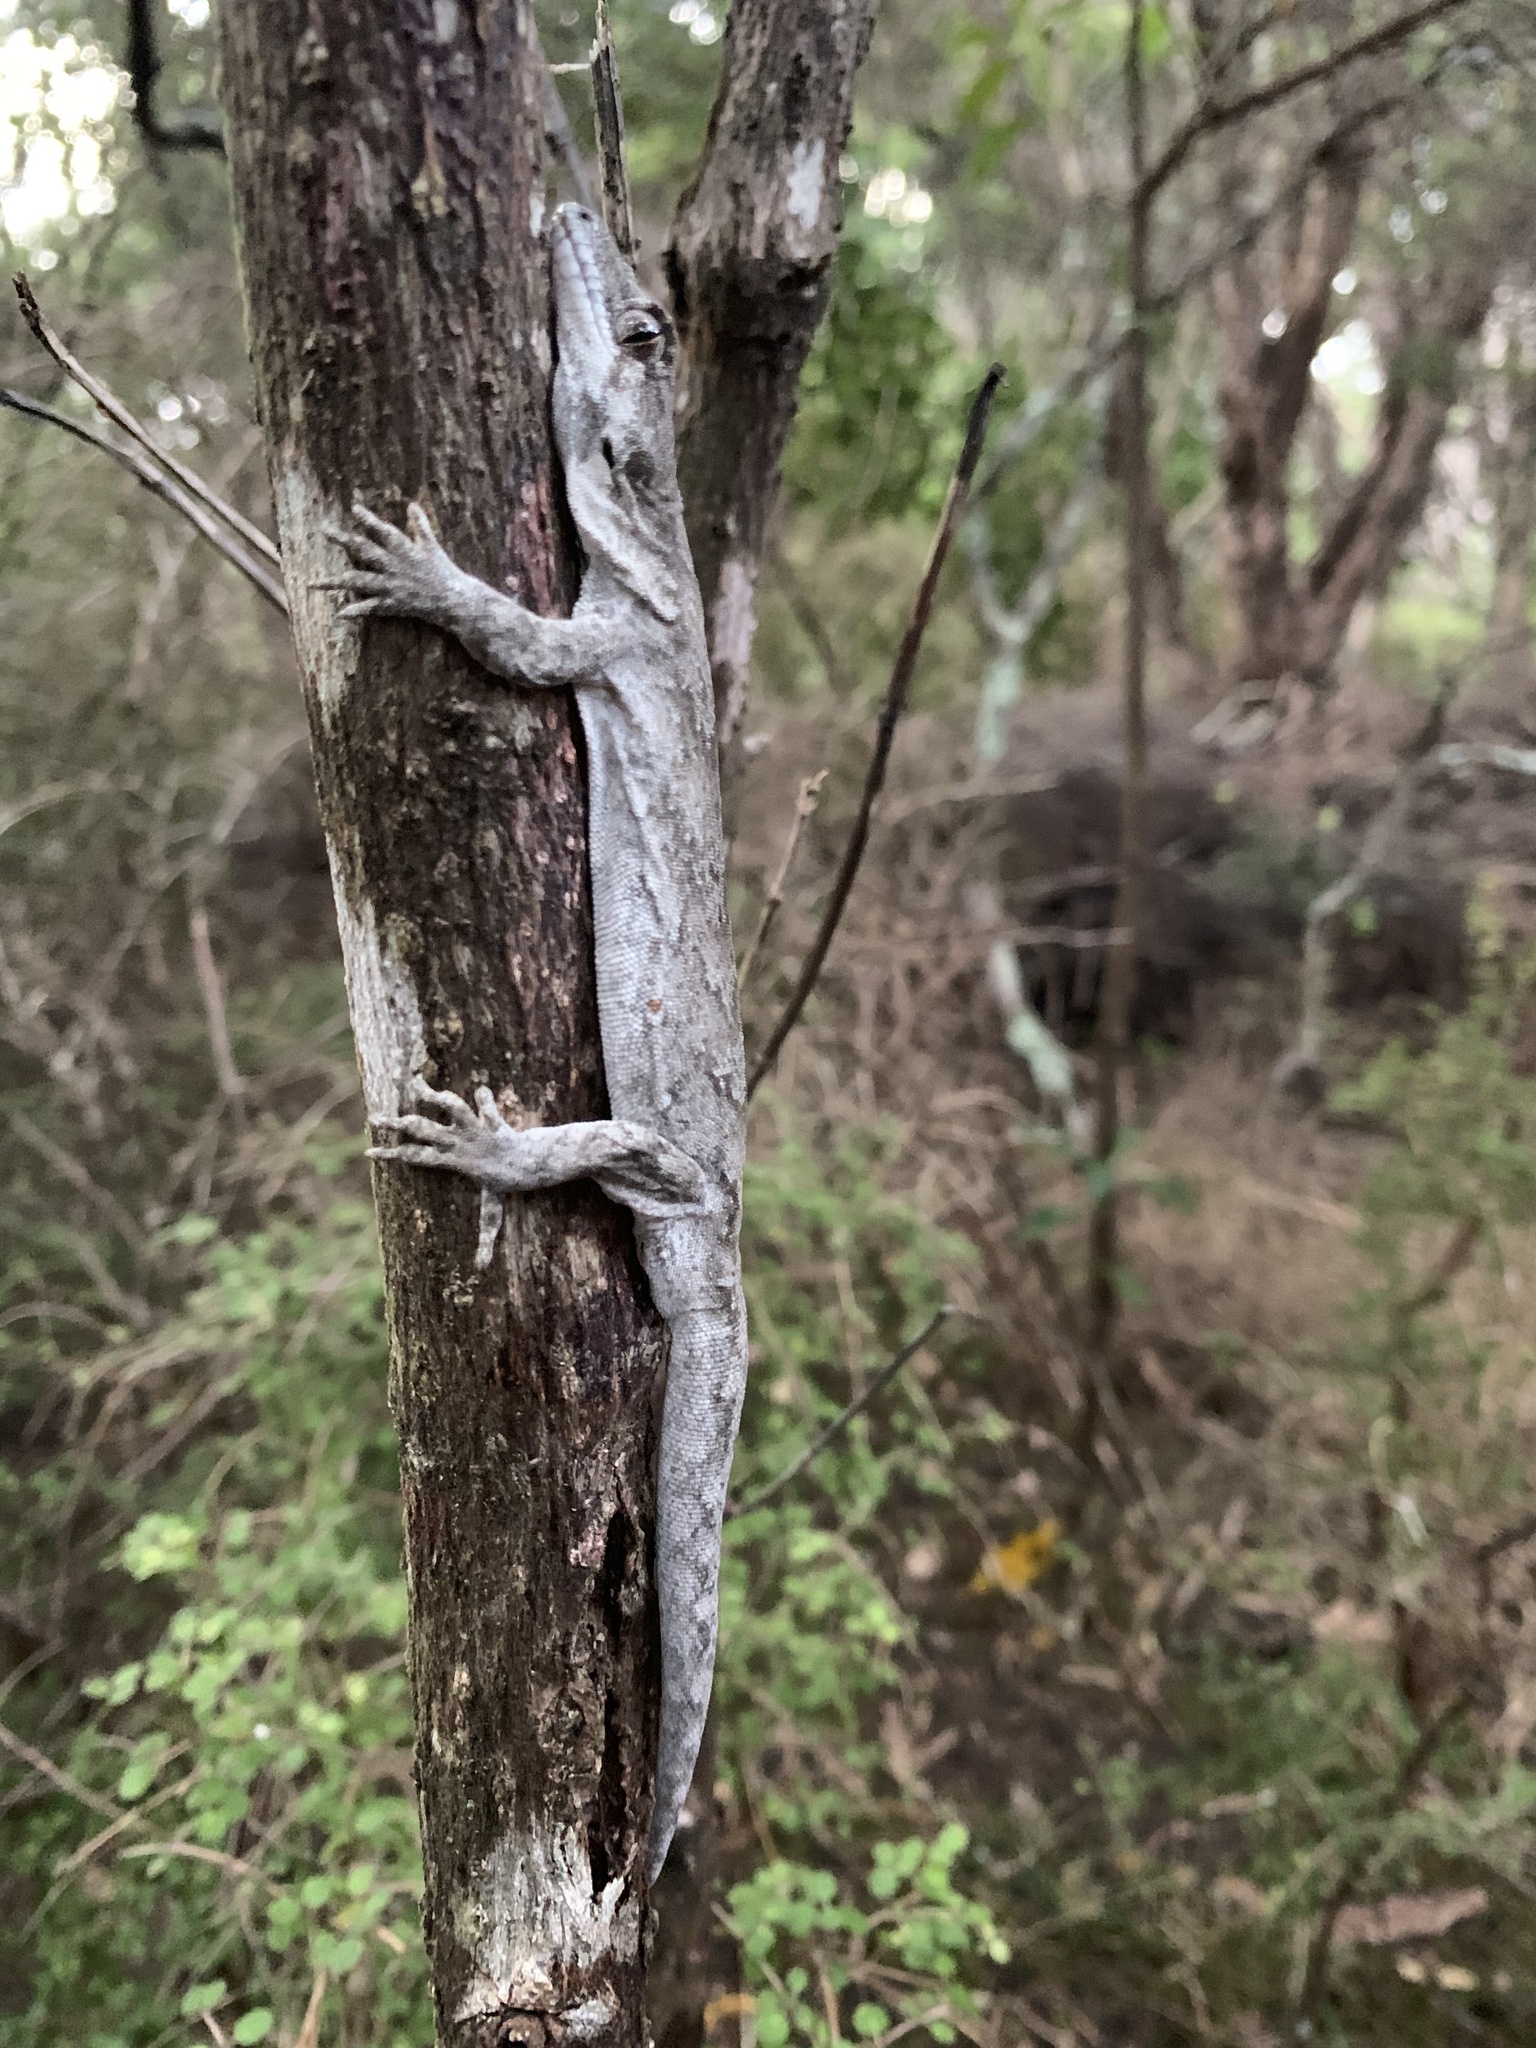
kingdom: Animalia
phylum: Chordata
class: Squamata
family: Diplodactylidae
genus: Mokopirirakau
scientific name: Mokopirirakau granulatus
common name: Forest gecko
